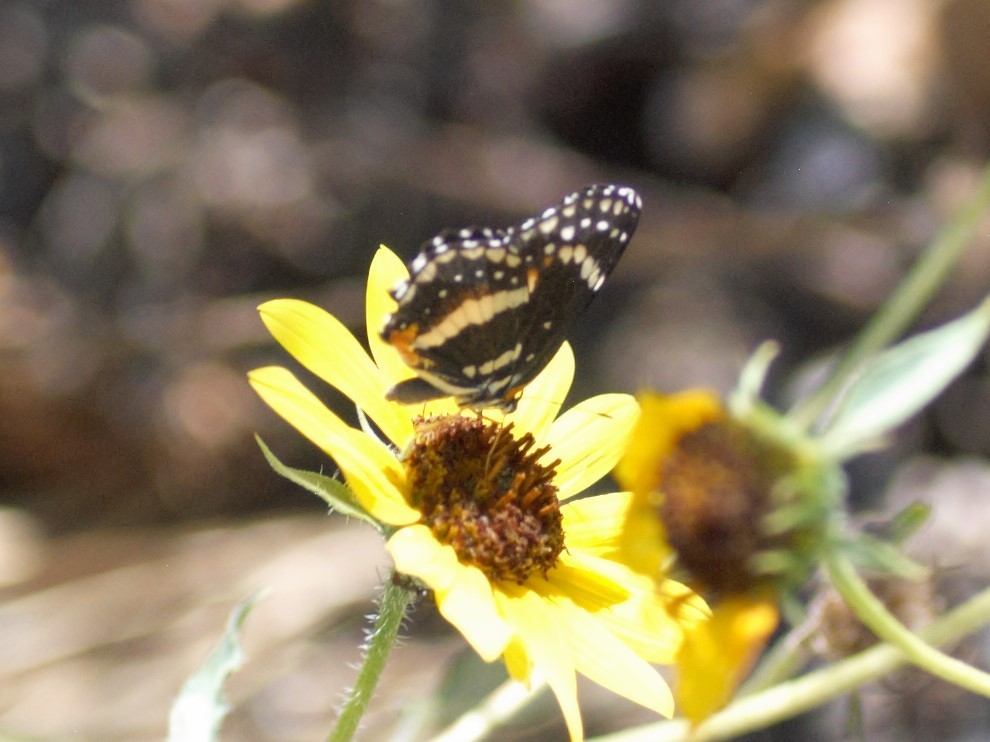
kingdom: Animalia
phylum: Arthropoda
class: Insecta
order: Lepidoptera
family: Nymphalidae
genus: Chlosyne
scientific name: Chlosyne lacinia
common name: Bordered patch
